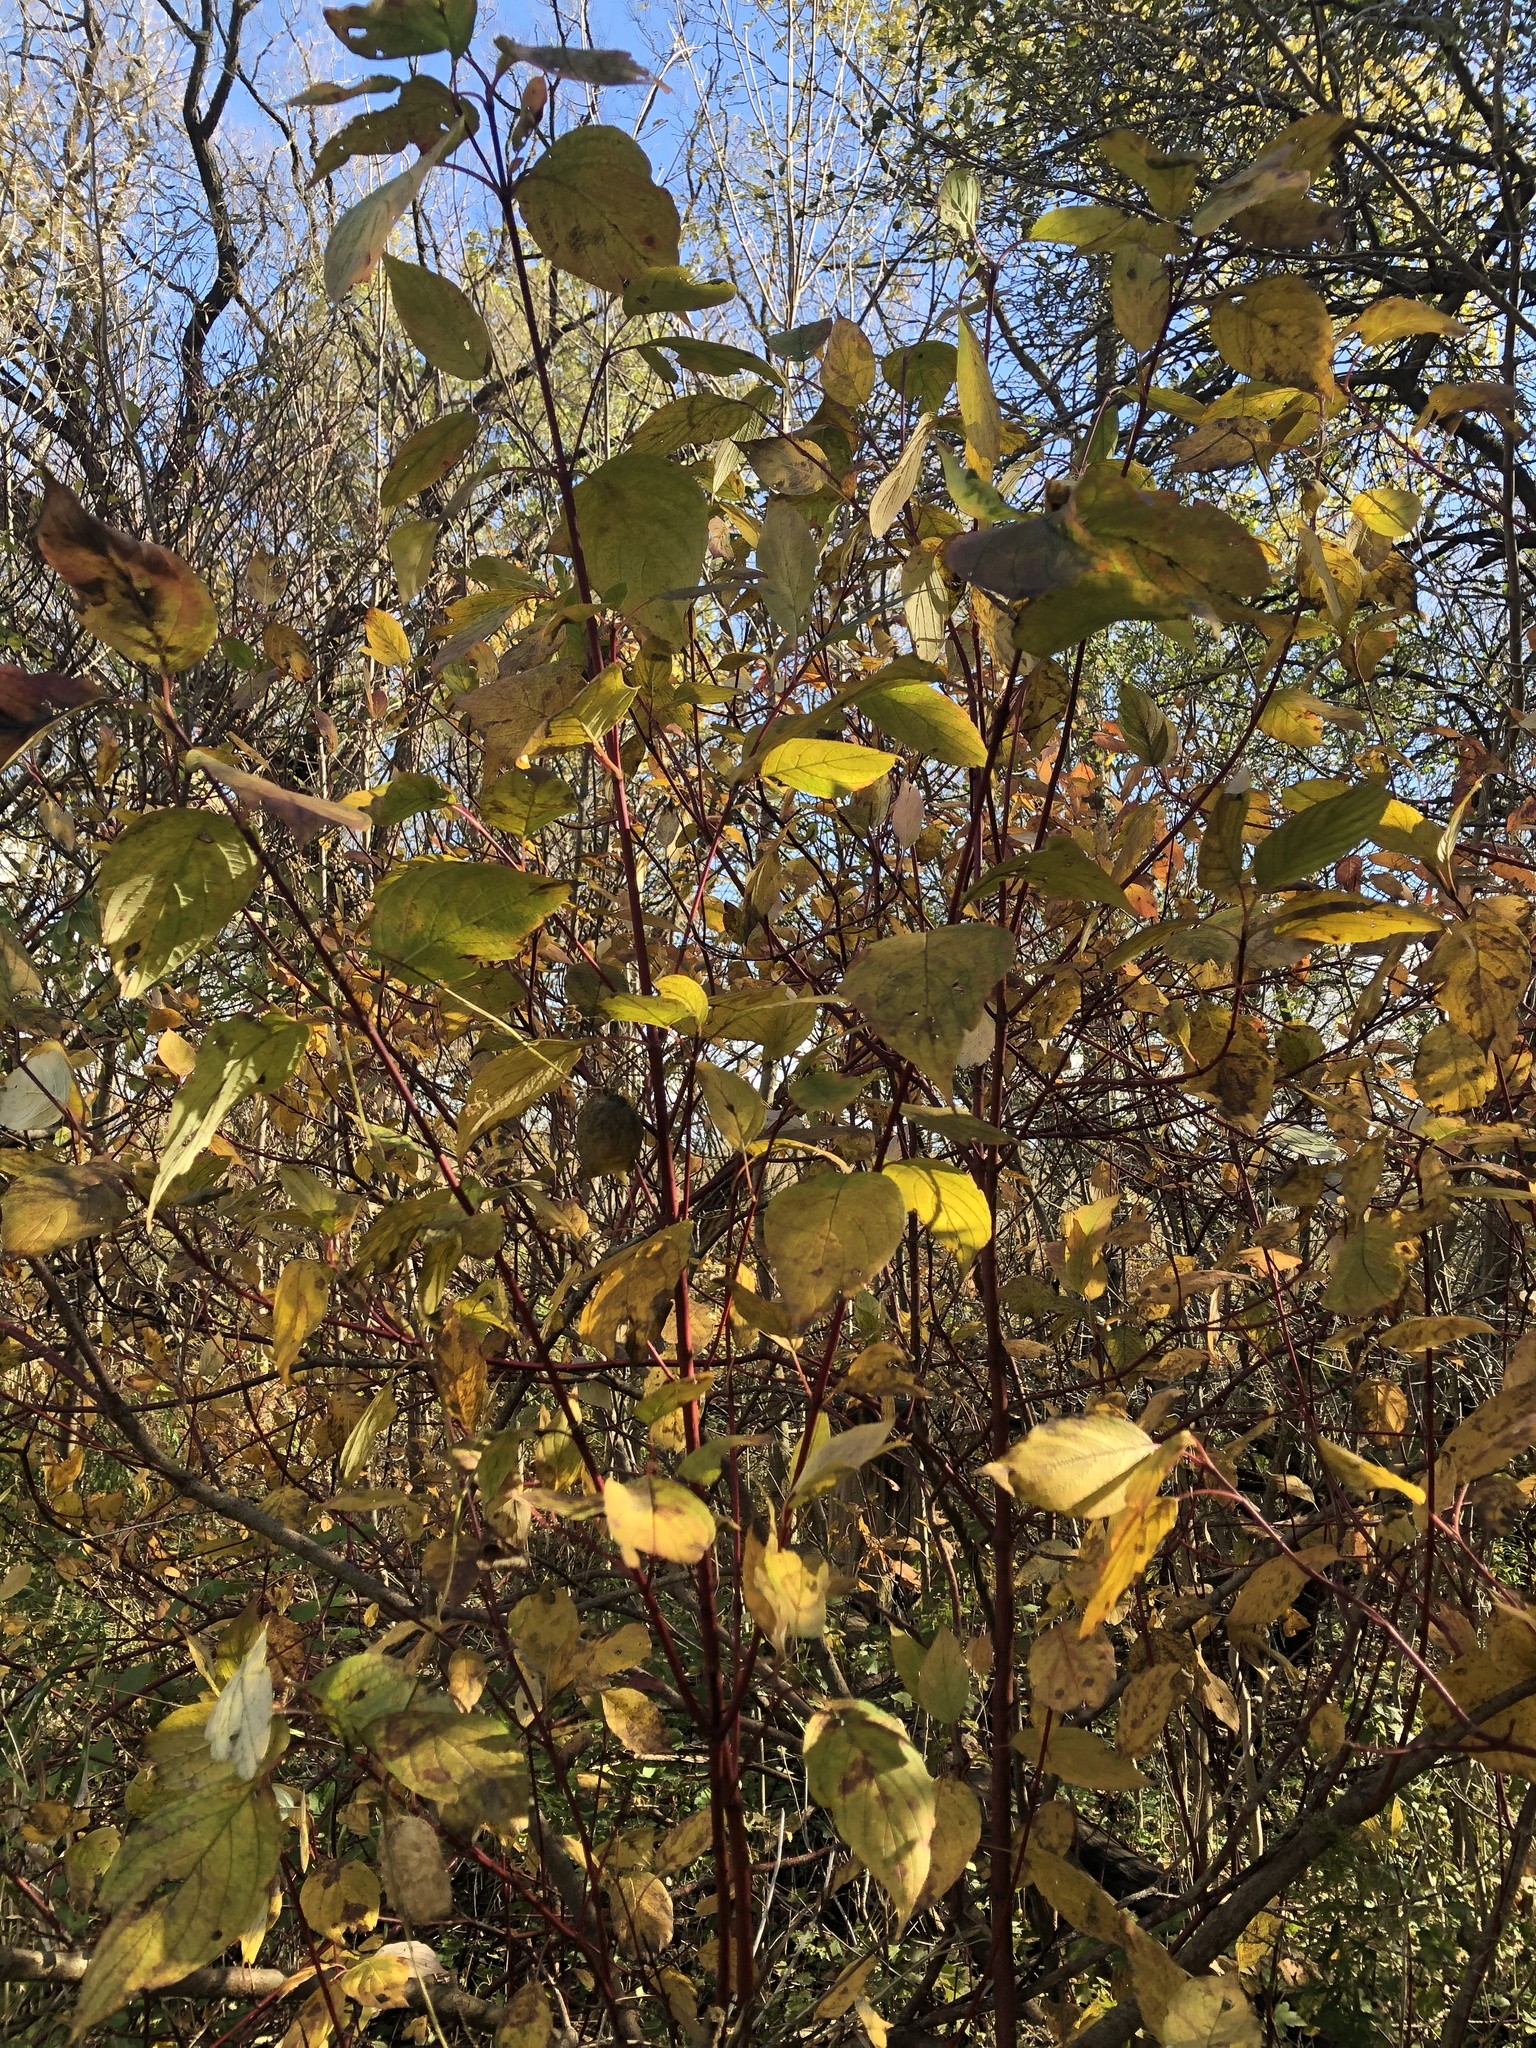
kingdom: Plantae
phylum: Tracheophyta
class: Magnoliopsida
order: Cornales
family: Cornaceae
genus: Cornus
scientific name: Cornus sericea
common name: Red-osier dogwood
